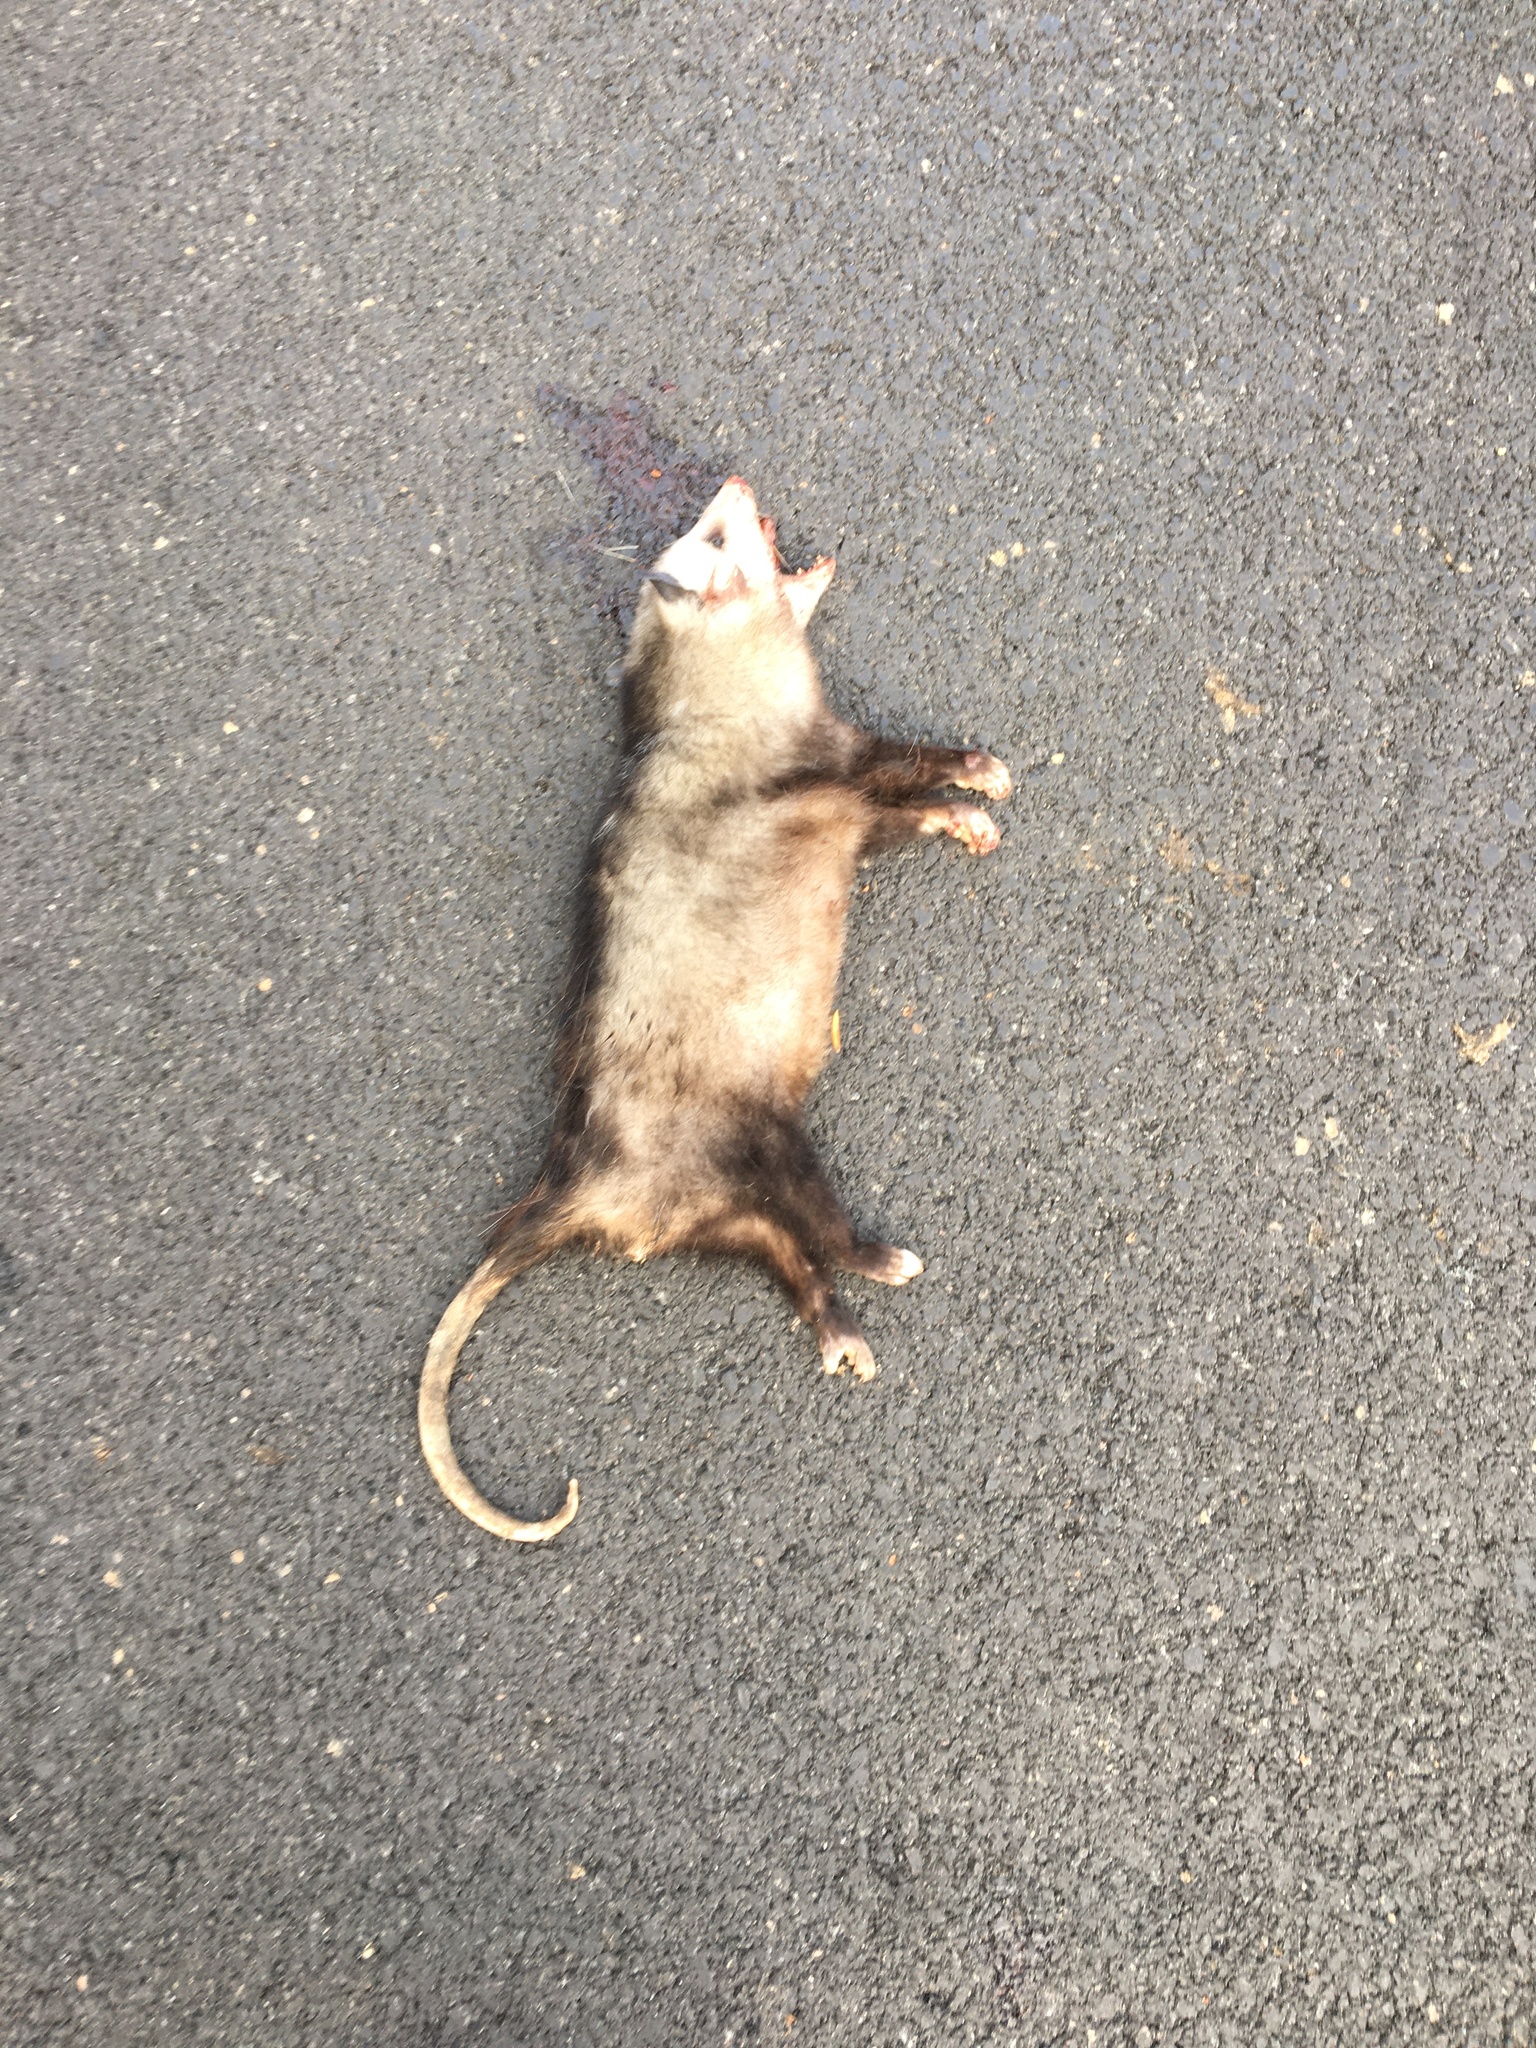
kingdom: Animalia
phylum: Chordata
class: Mammalia
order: Didelphimorphia
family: Didelphidae
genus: Didelphis
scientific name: Didelphis virginiana
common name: Virginia opossum
